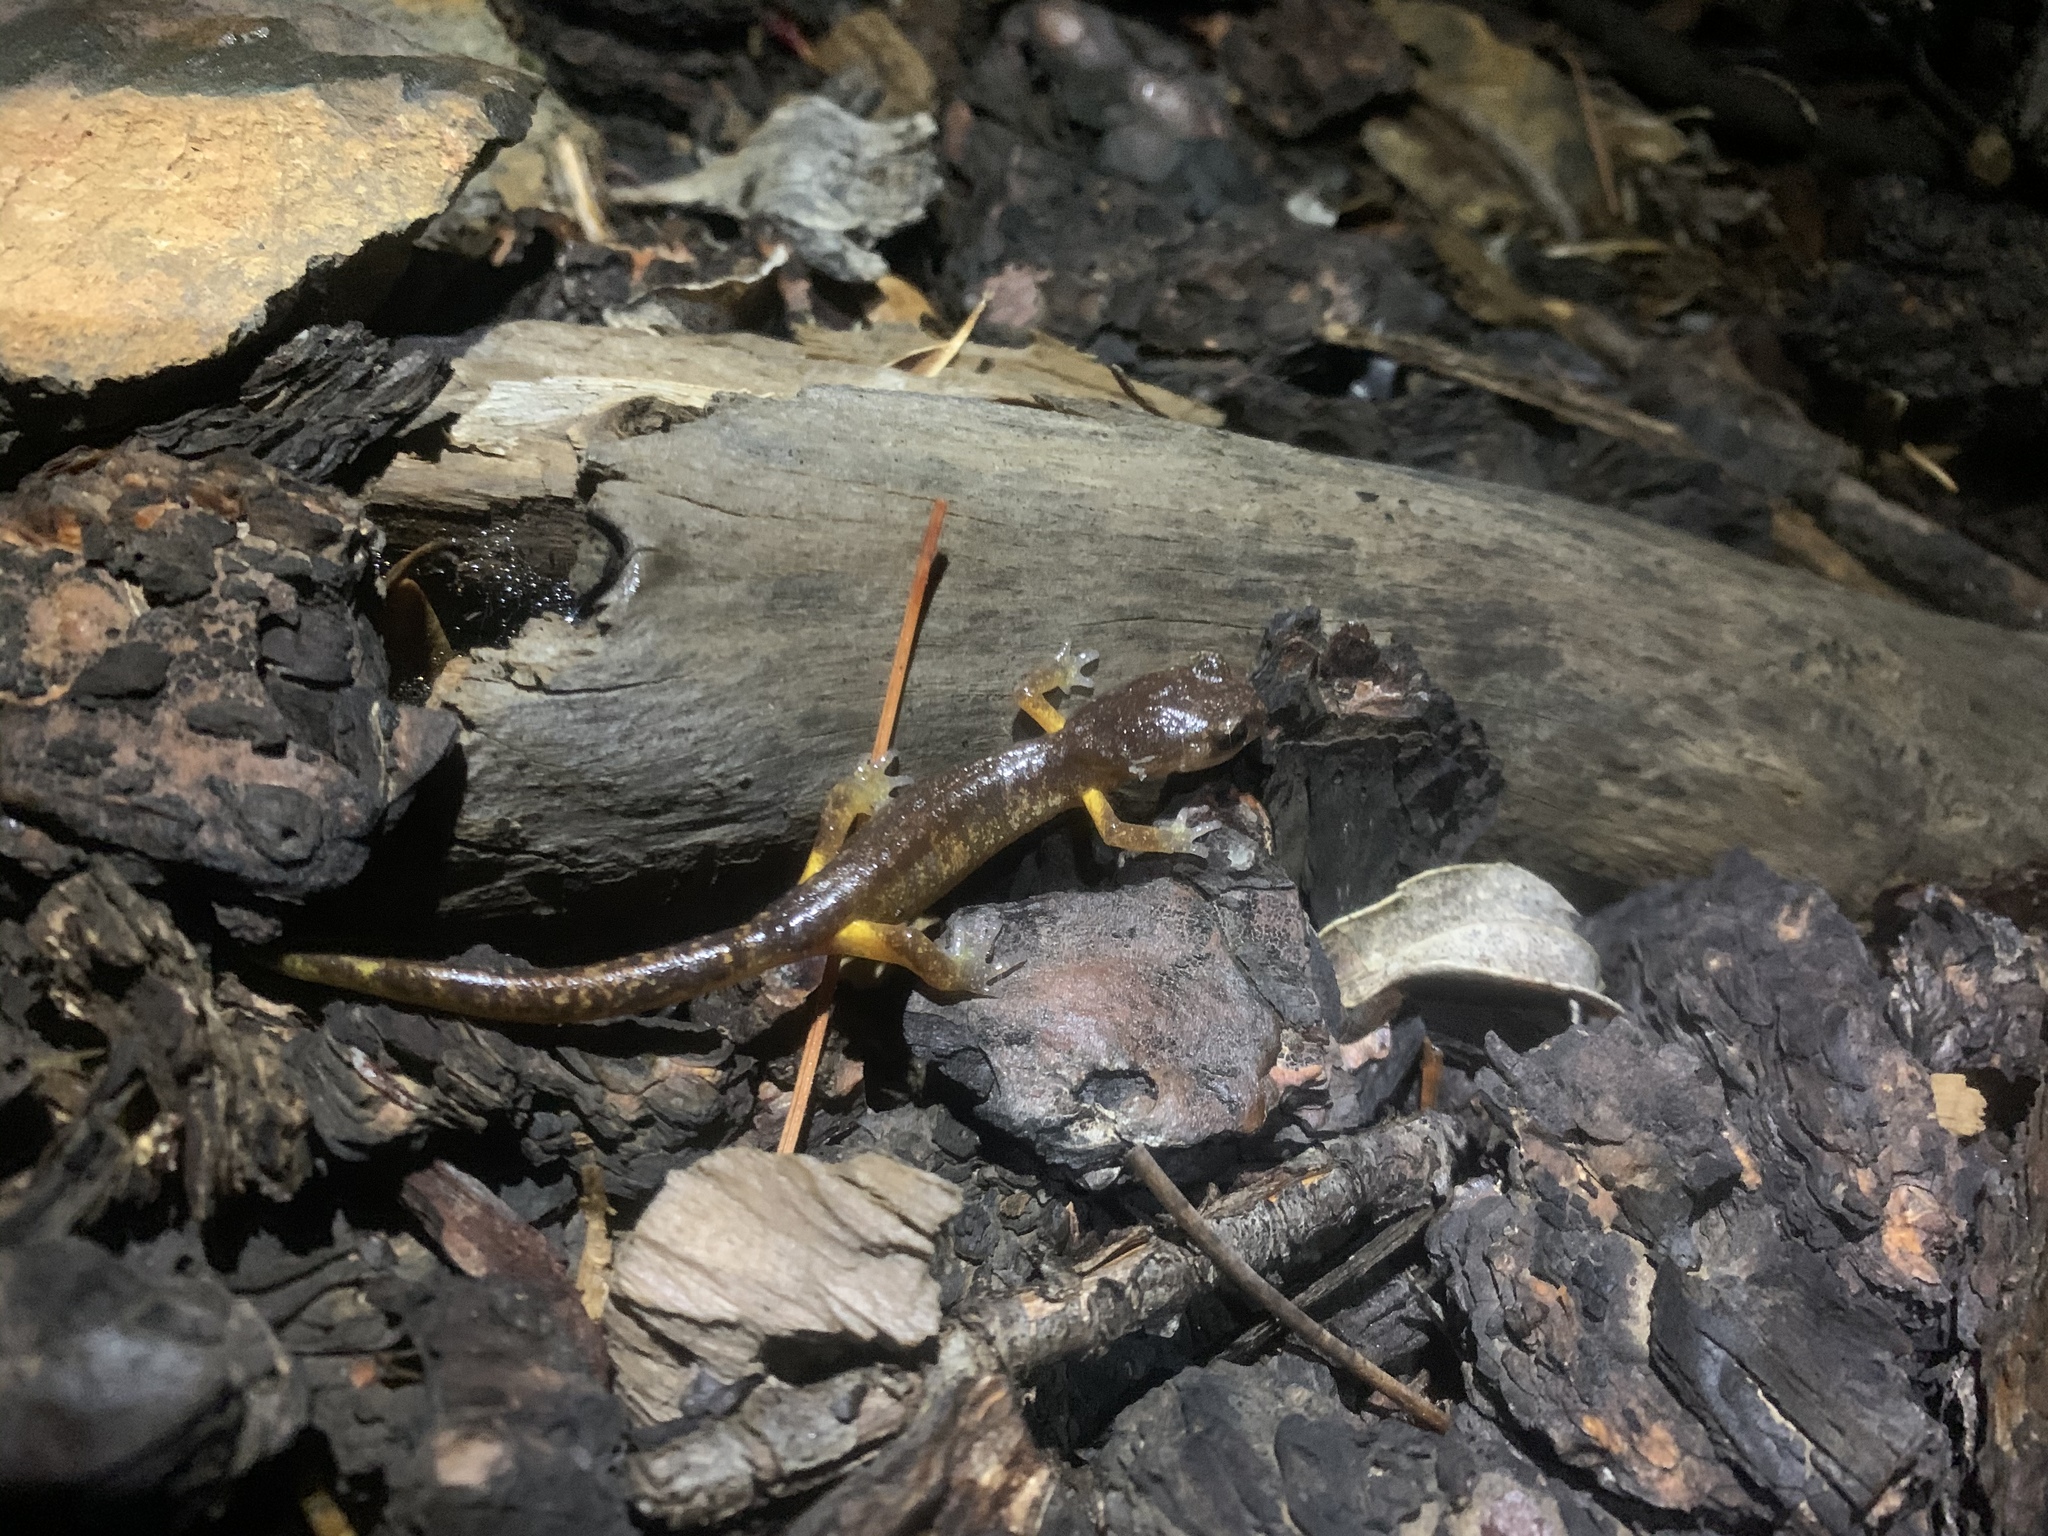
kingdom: Animalia
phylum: Chordata
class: Amphibia
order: Caudata
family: Plethodontidae
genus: Ensatina
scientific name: Ensatina eschscholtzii
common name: Ensatina
